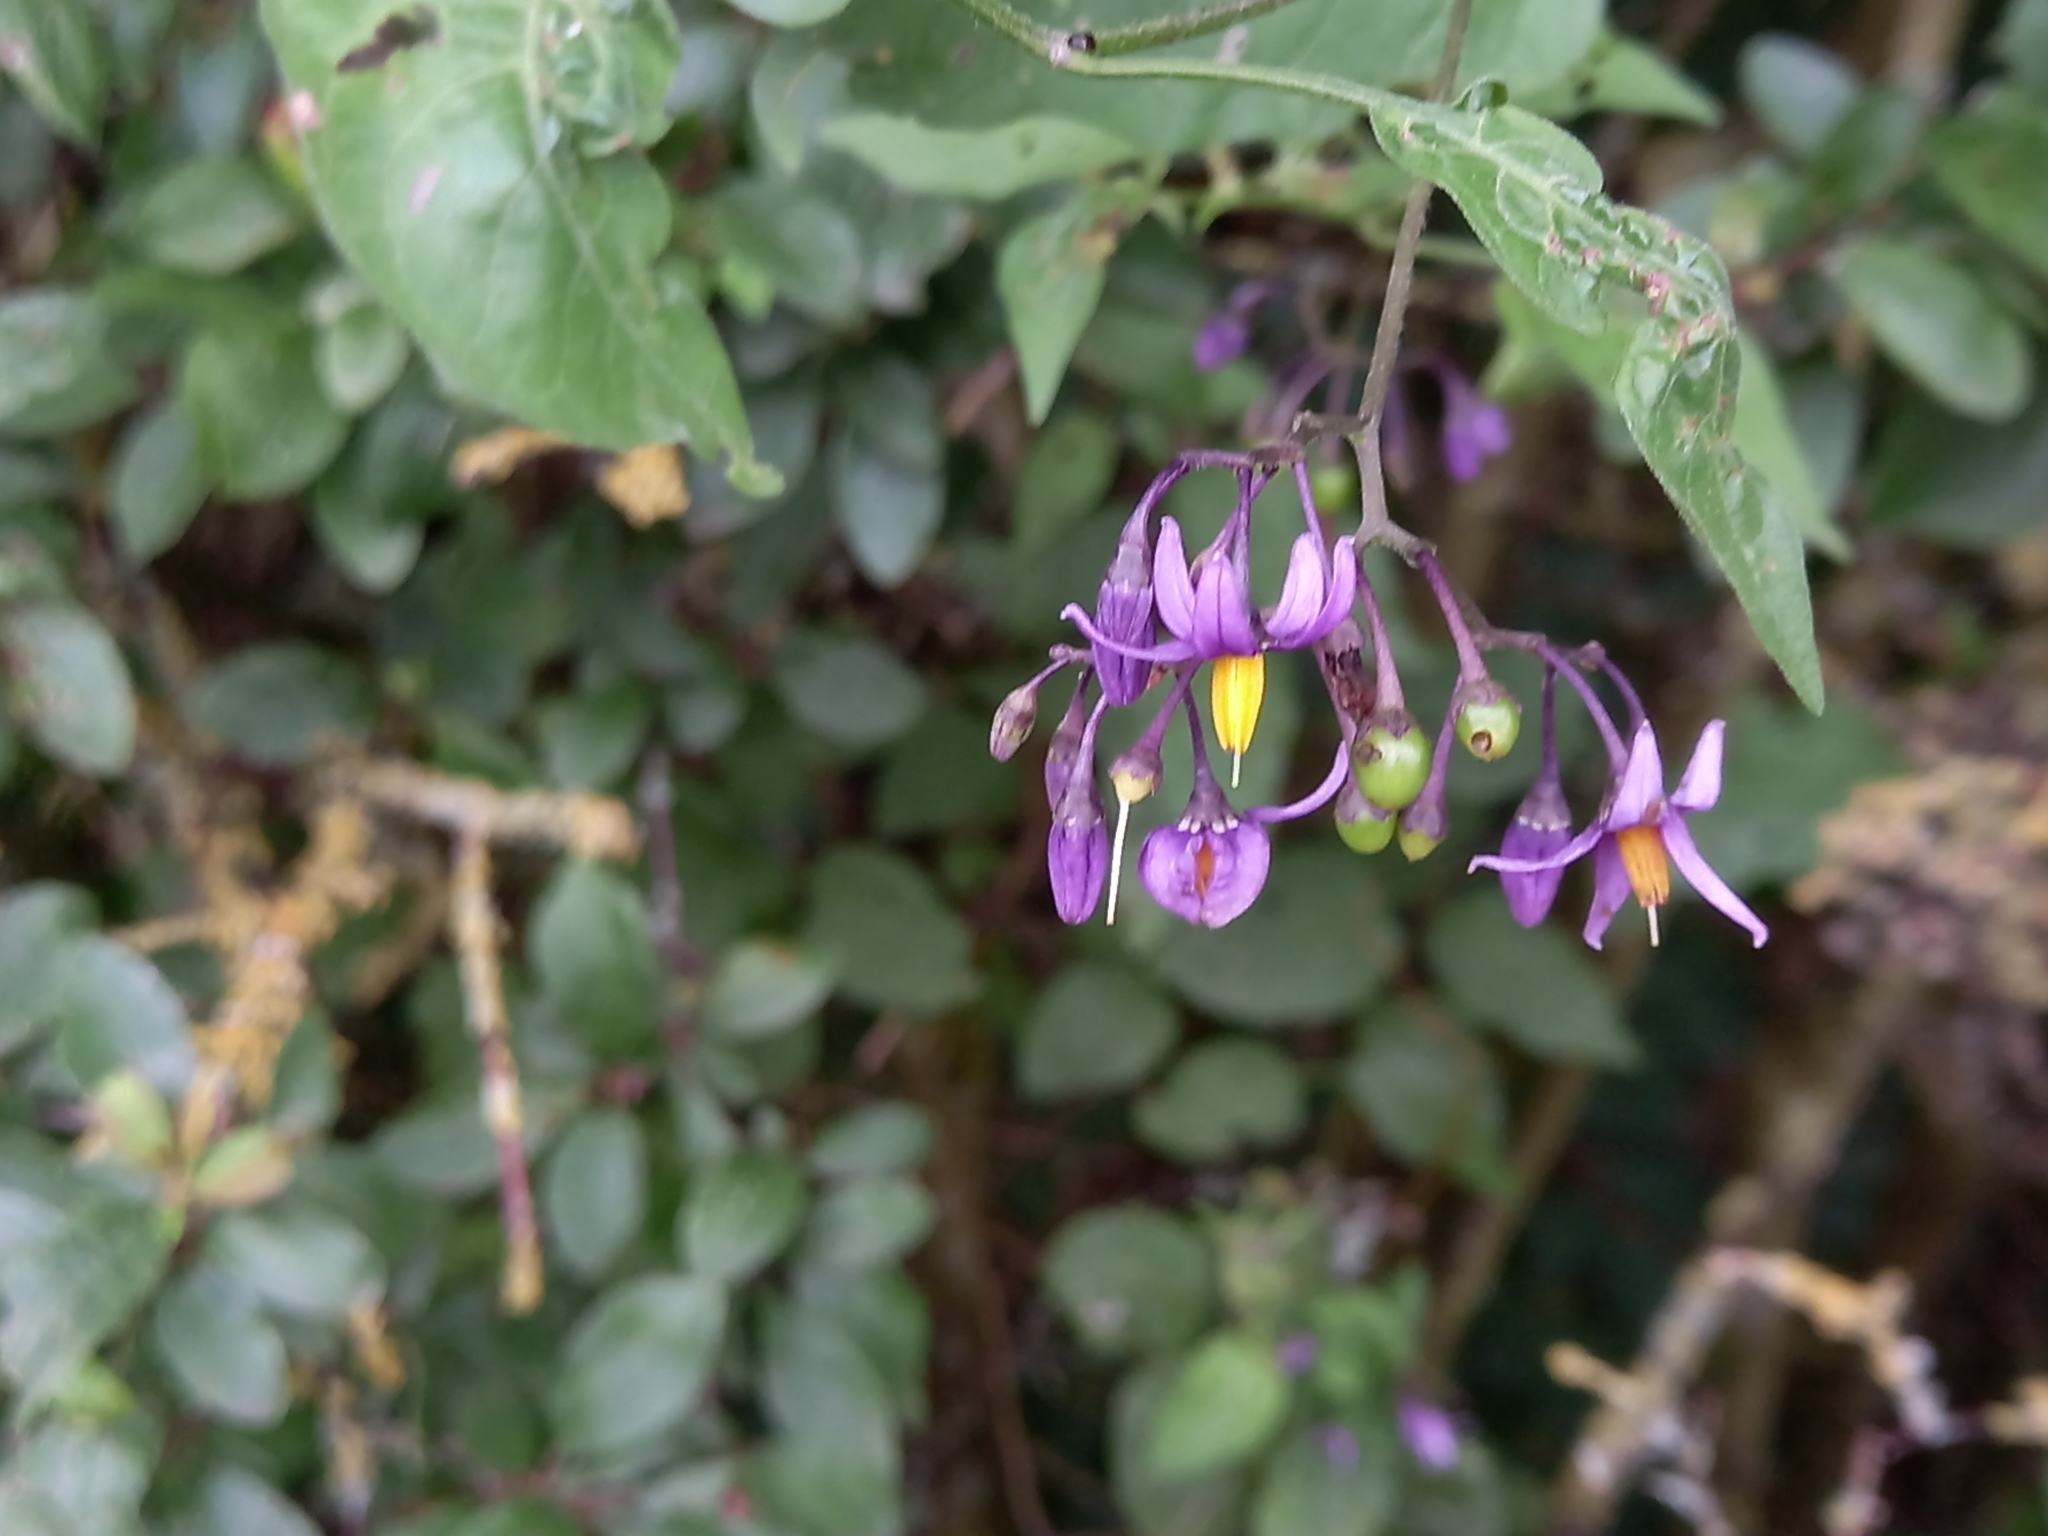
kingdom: Plantae
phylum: Tracheophyta
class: Magnoliopsida
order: Solanales
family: Solanaceae
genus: Solanum
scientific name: Solanum dulcamara
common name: Climbing nightshade
